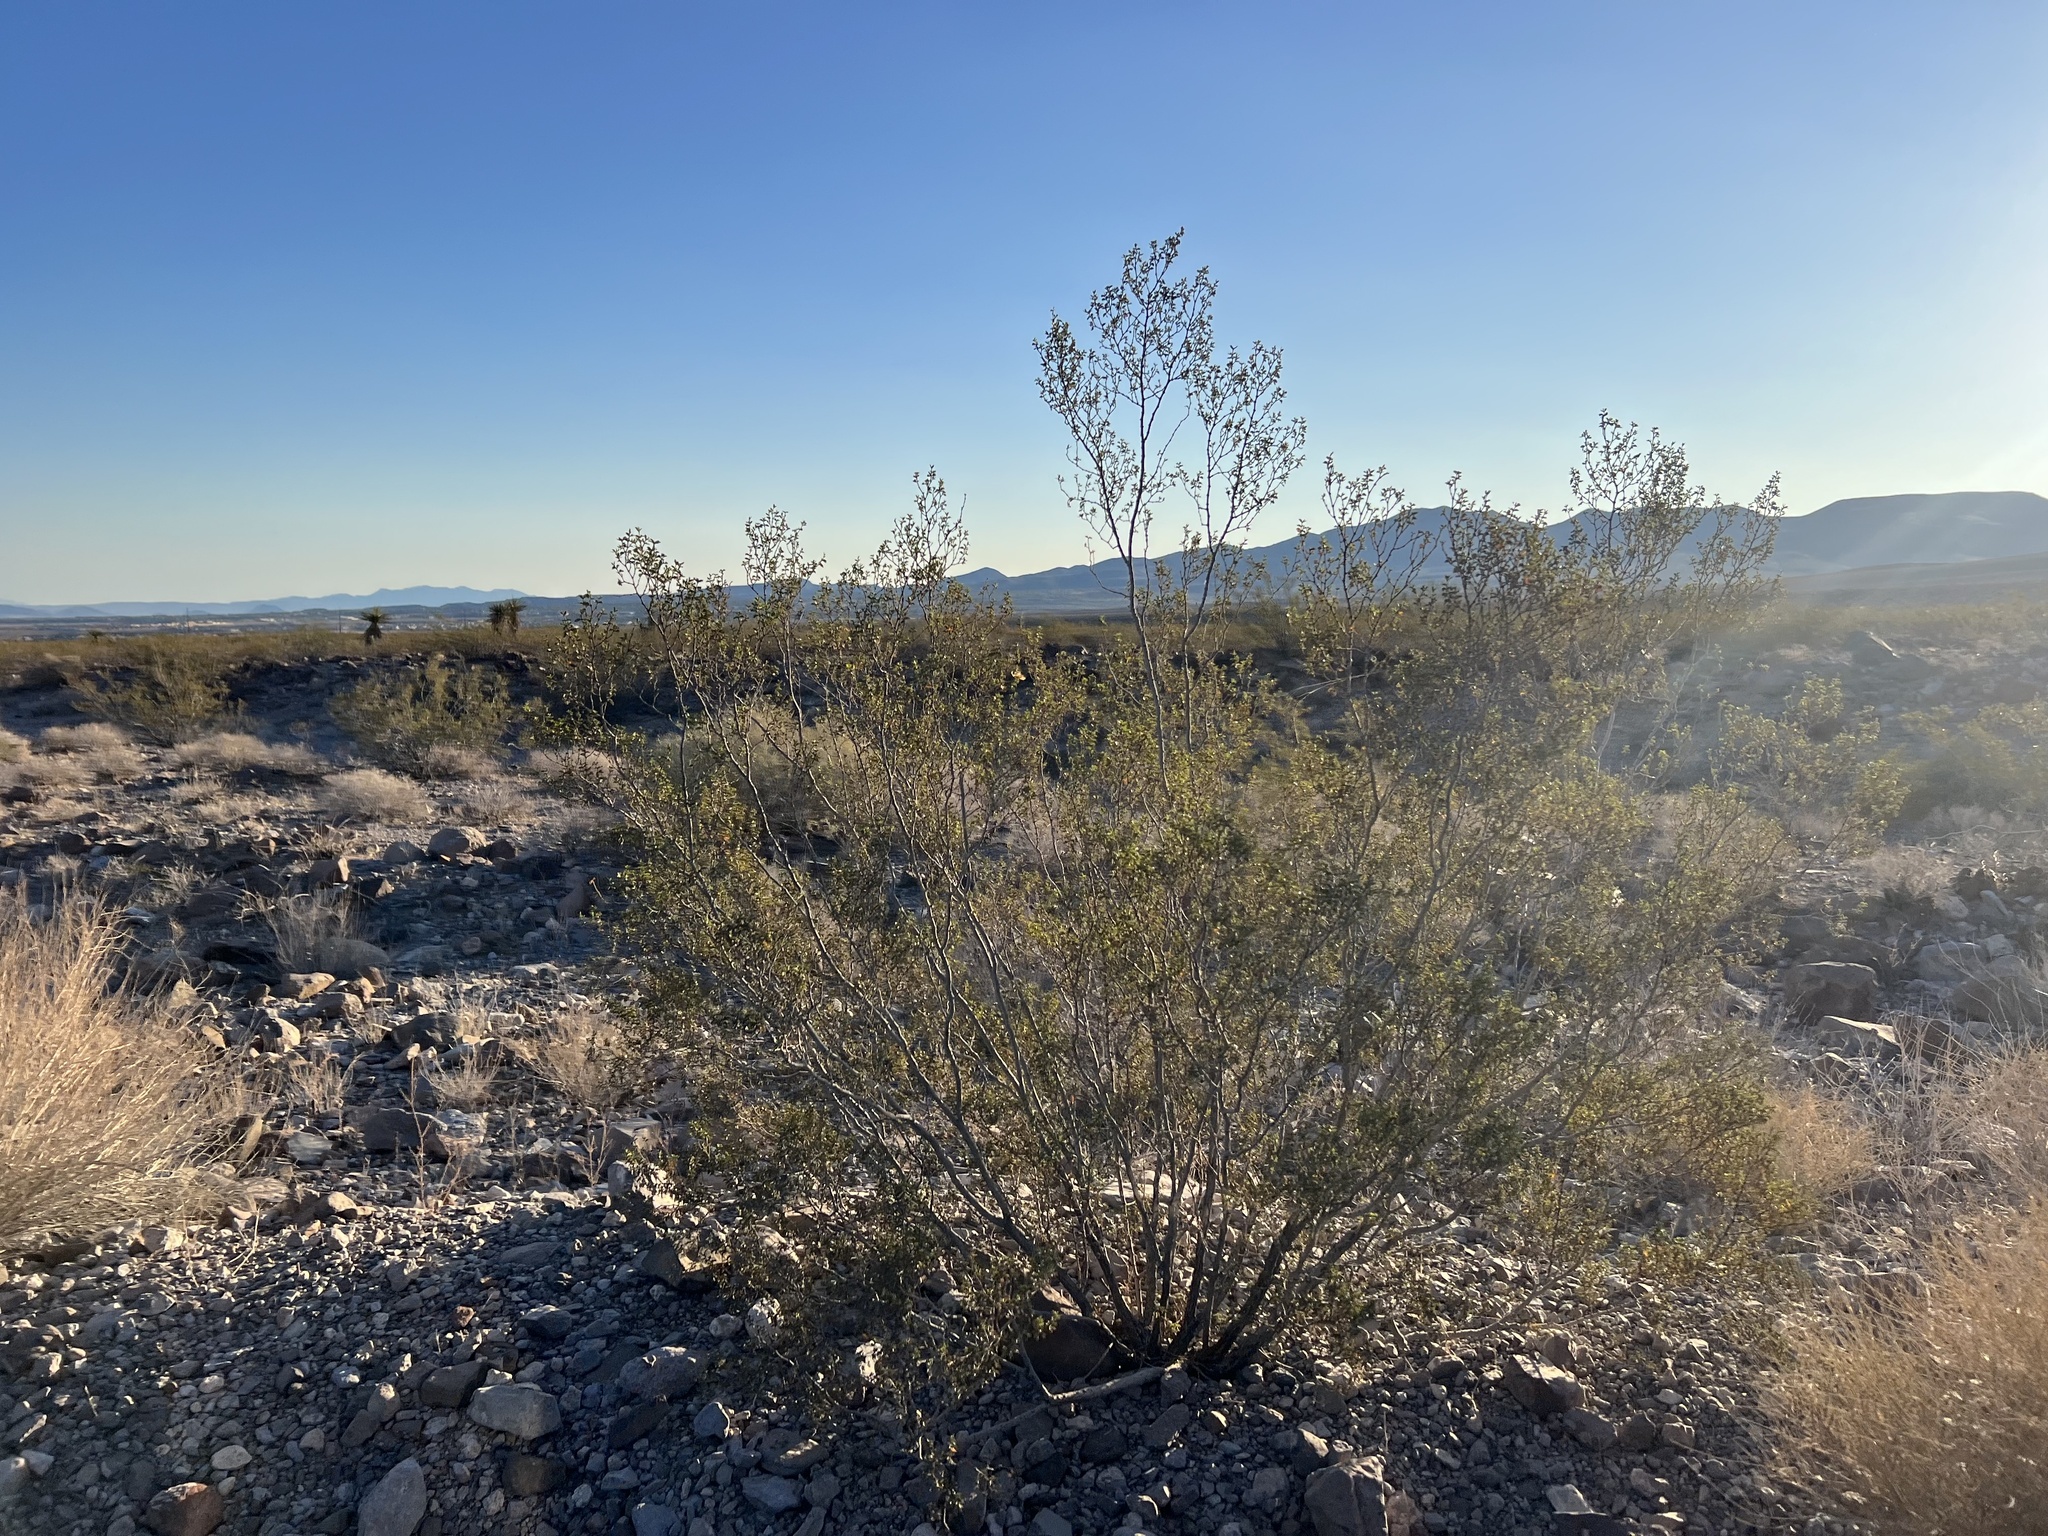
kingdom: Plantae
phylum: Tracheophyta
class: Magnoliopsida
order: Zygophyllales
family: Zygophyllaceae
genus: Larrea
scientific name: Larrea tridentata
